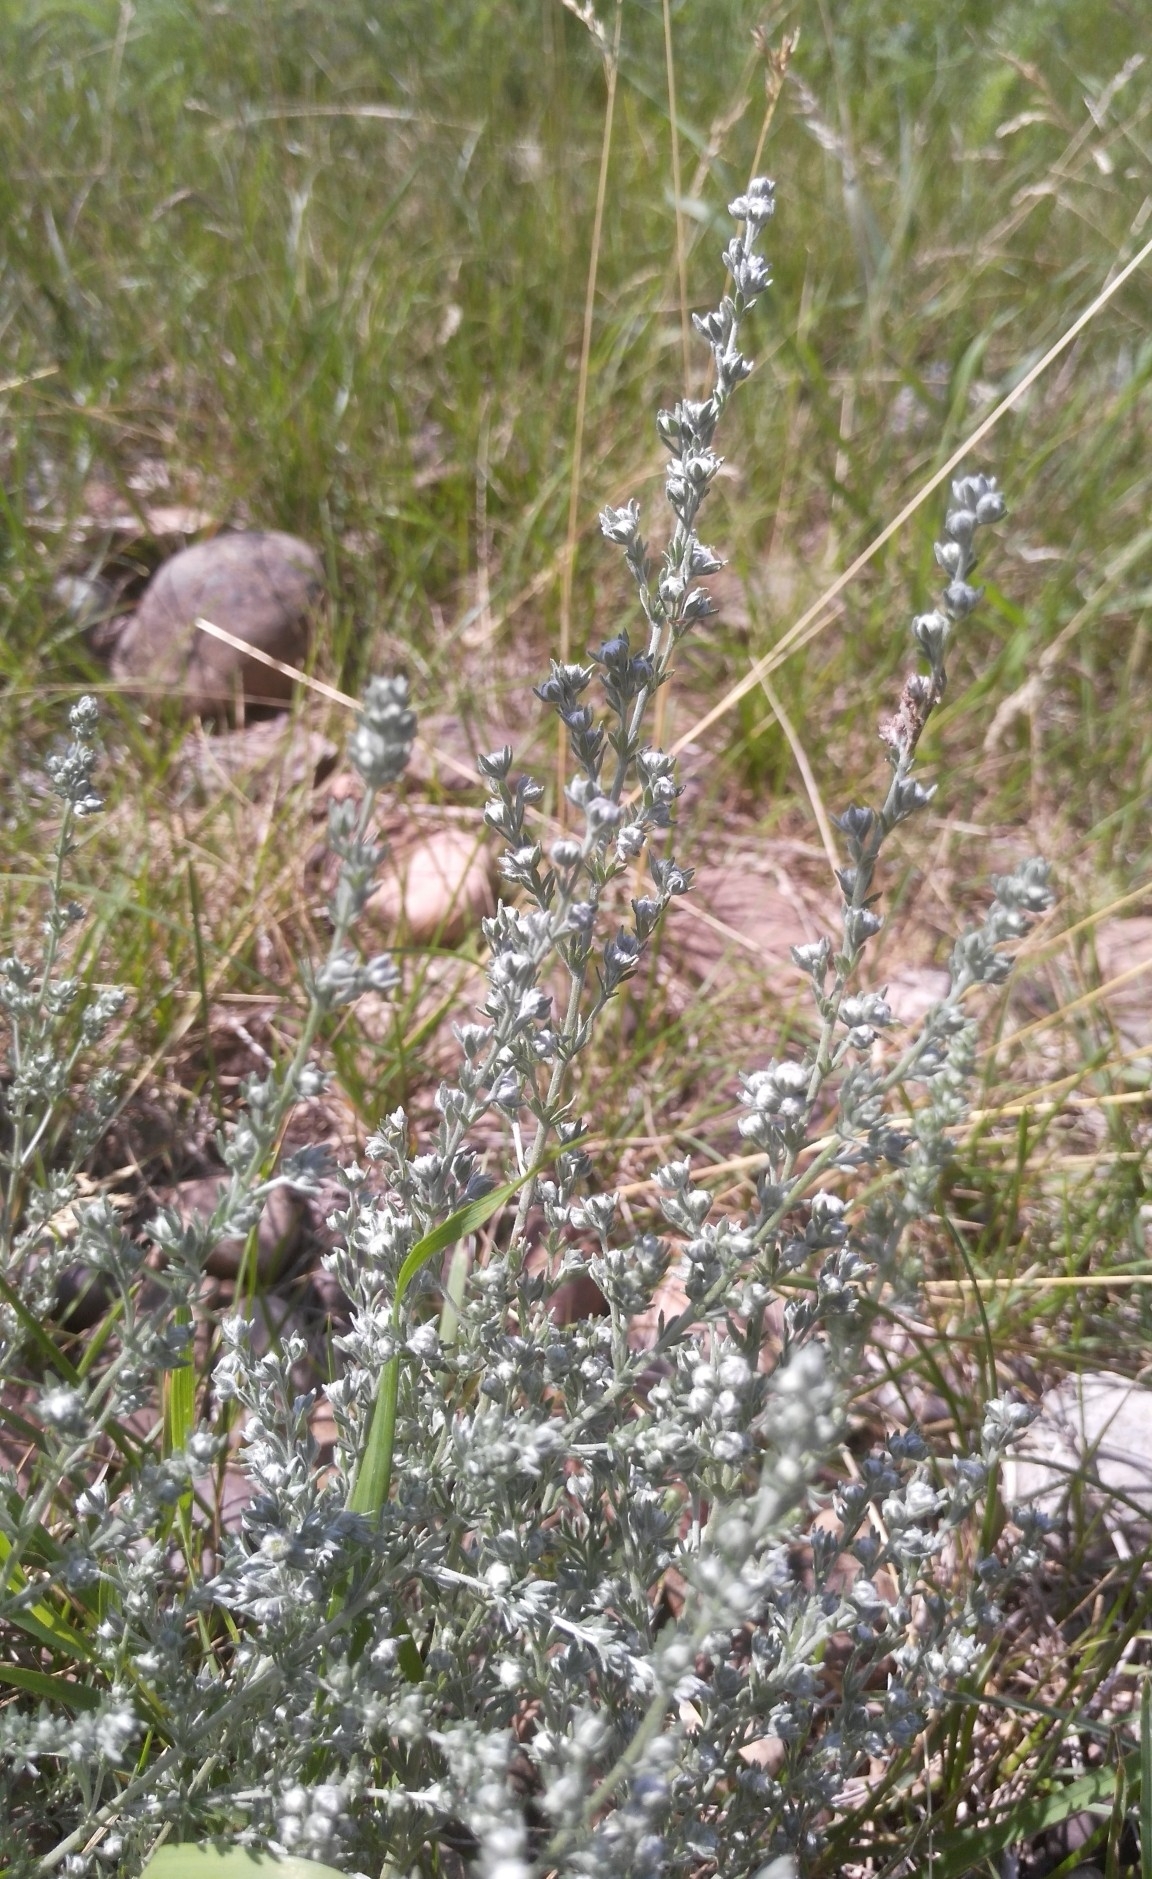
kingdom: Plantae
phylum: Tracheophyta
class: Magnoliopsida
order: Asterales
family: Asteraceae
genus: Artemisia
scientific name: Artemisia frigida
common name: Prairie sagewort
